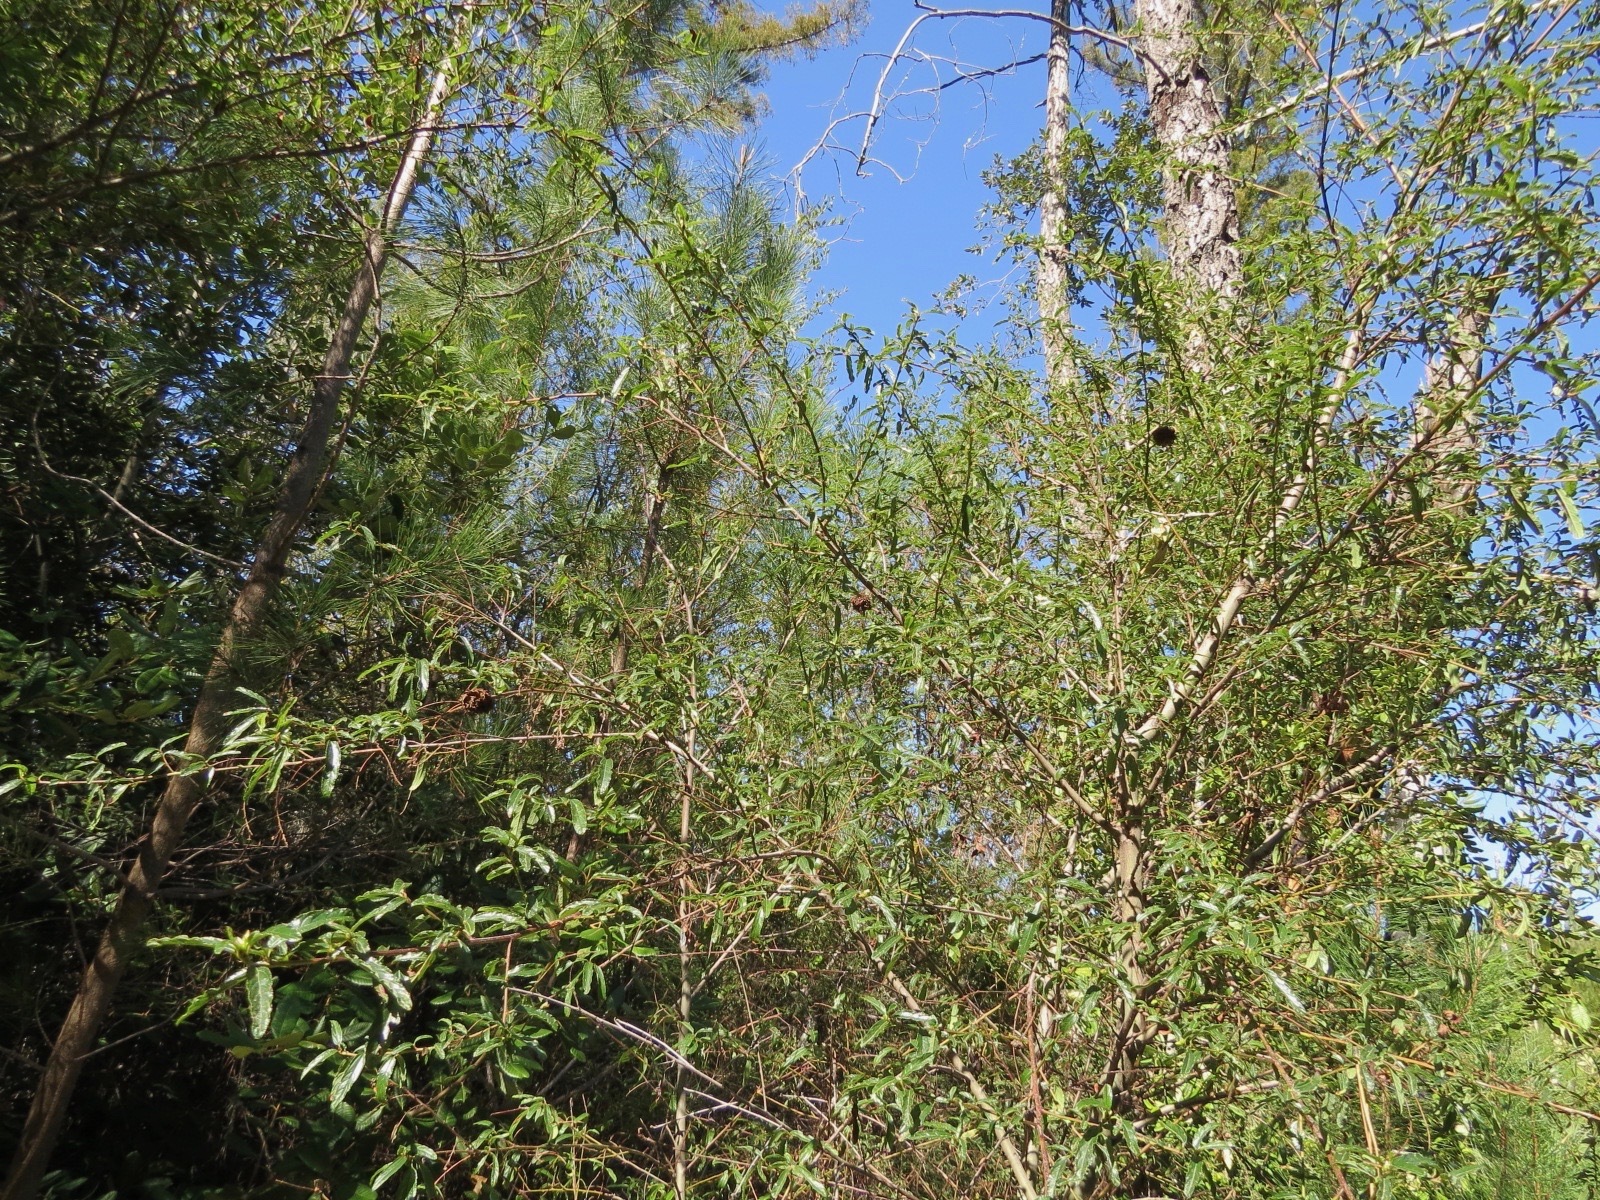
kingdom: Animalia
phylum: Arthropoda
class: Insecta
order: Diptera
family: Cecidomyiidae
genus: Asphondylia
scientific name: Asphondylia ceanothi
